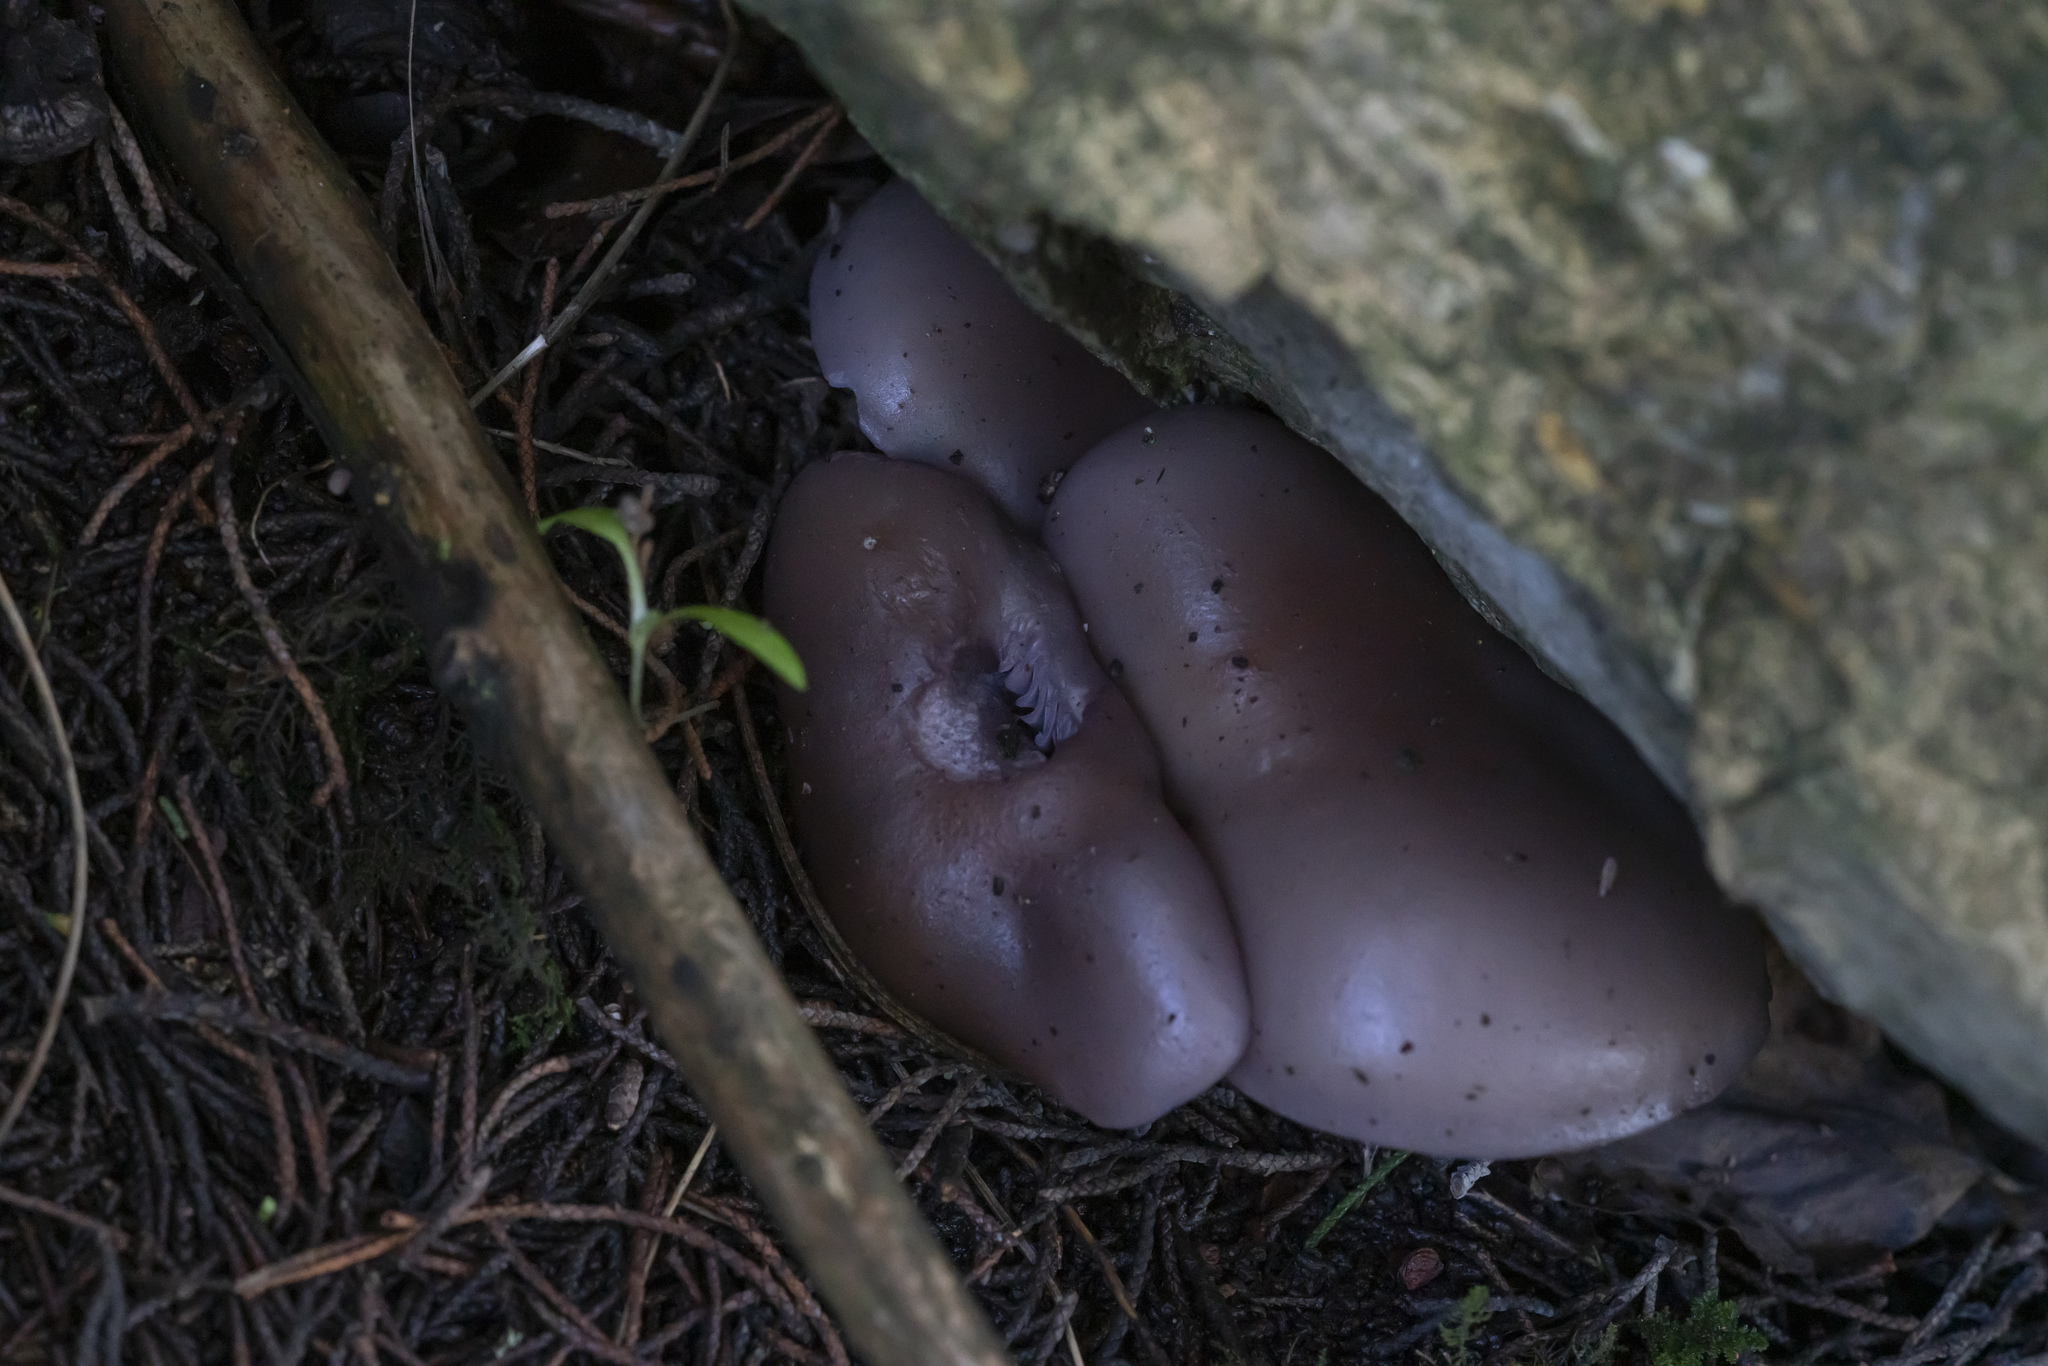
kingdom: Fungi
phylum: Basidiomycota
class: Agaricomycetes
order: Agaricales
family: Tricholomataceae
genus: Collybia
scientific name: Collybia
